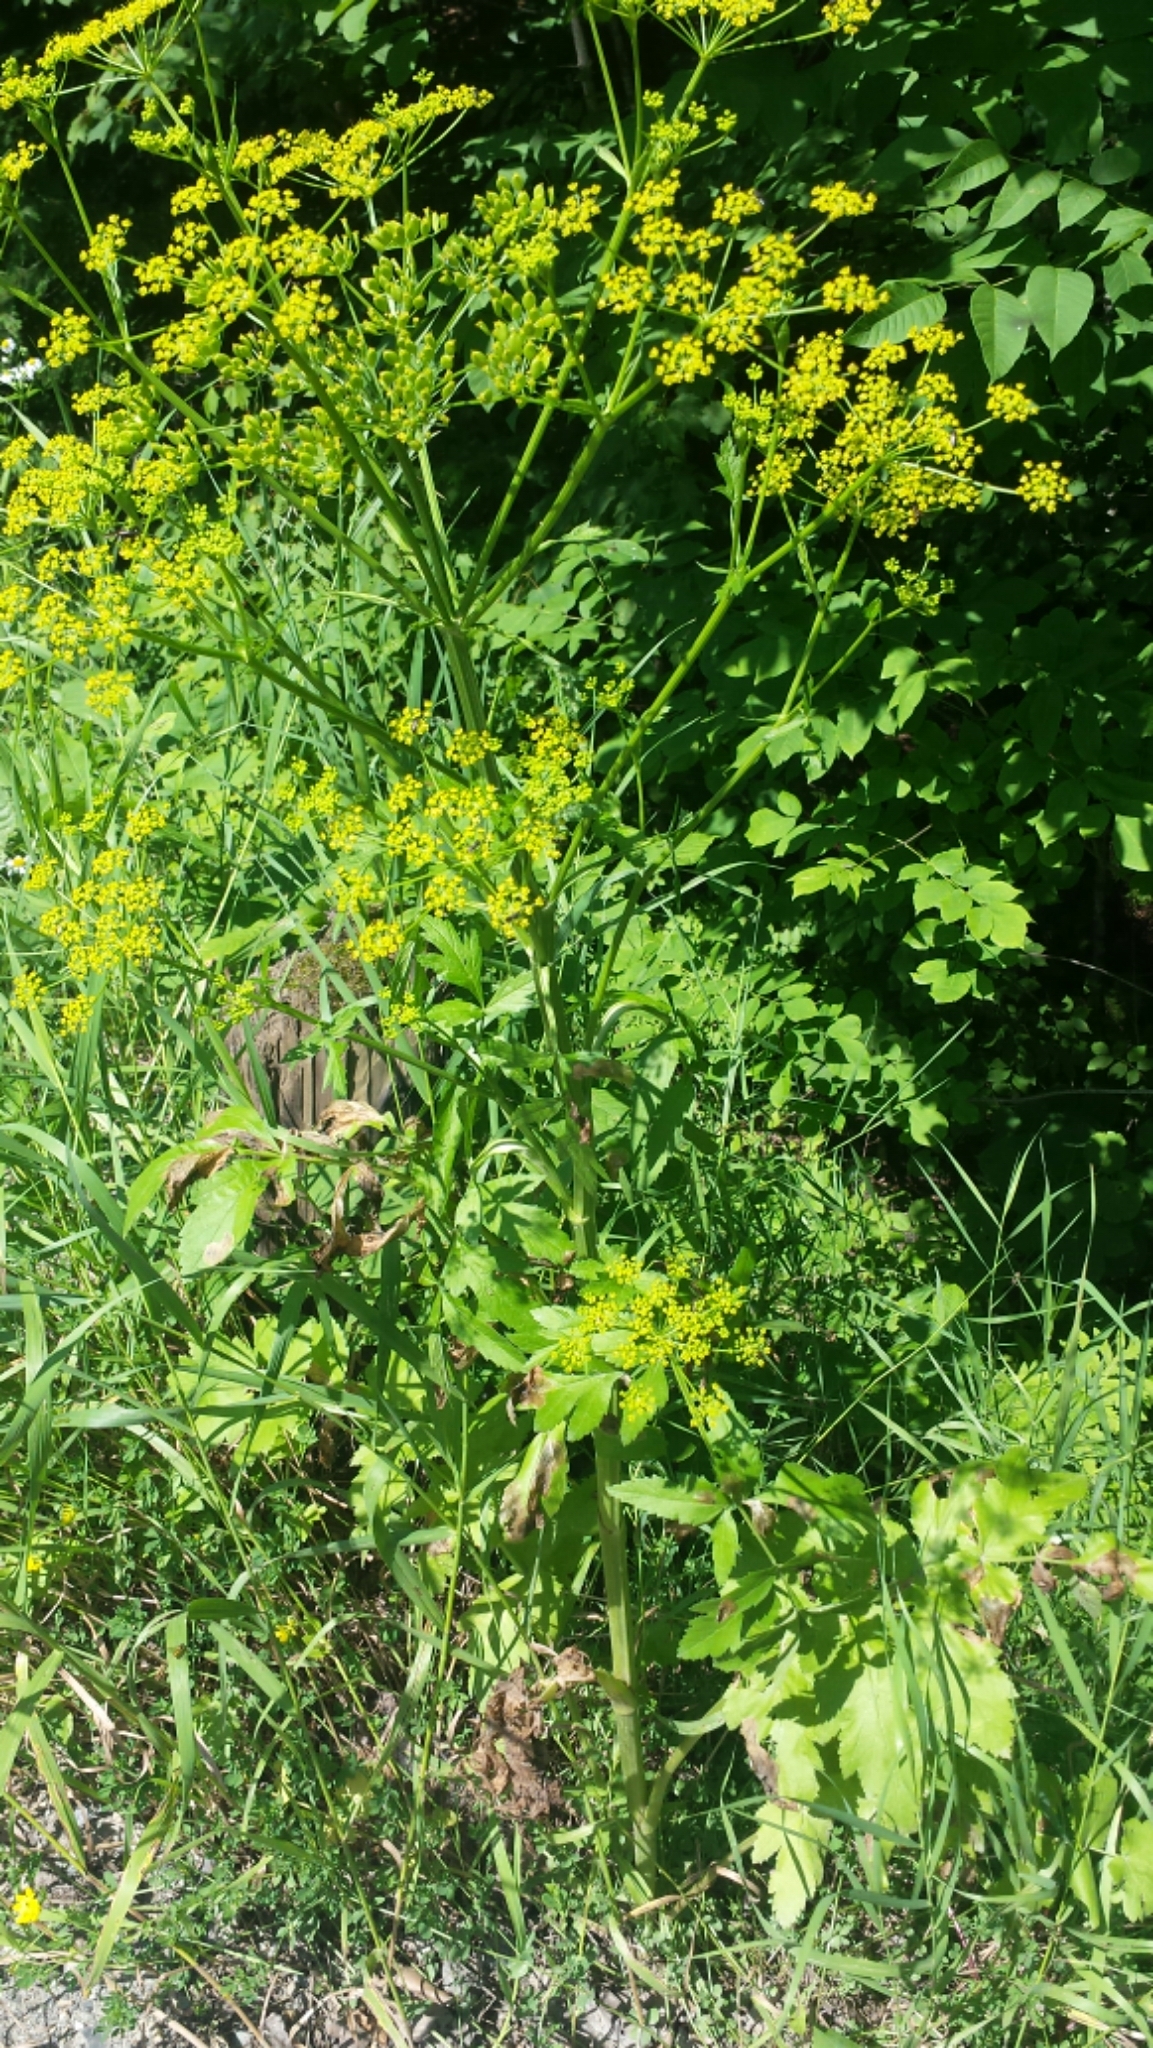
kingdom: Plantae
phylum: Tracheophyta
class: Magnoliopsida
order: Apiales
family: Apiaceae
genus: Pastinaca
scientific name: Pastinaca sativa
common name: Wild parsnip
